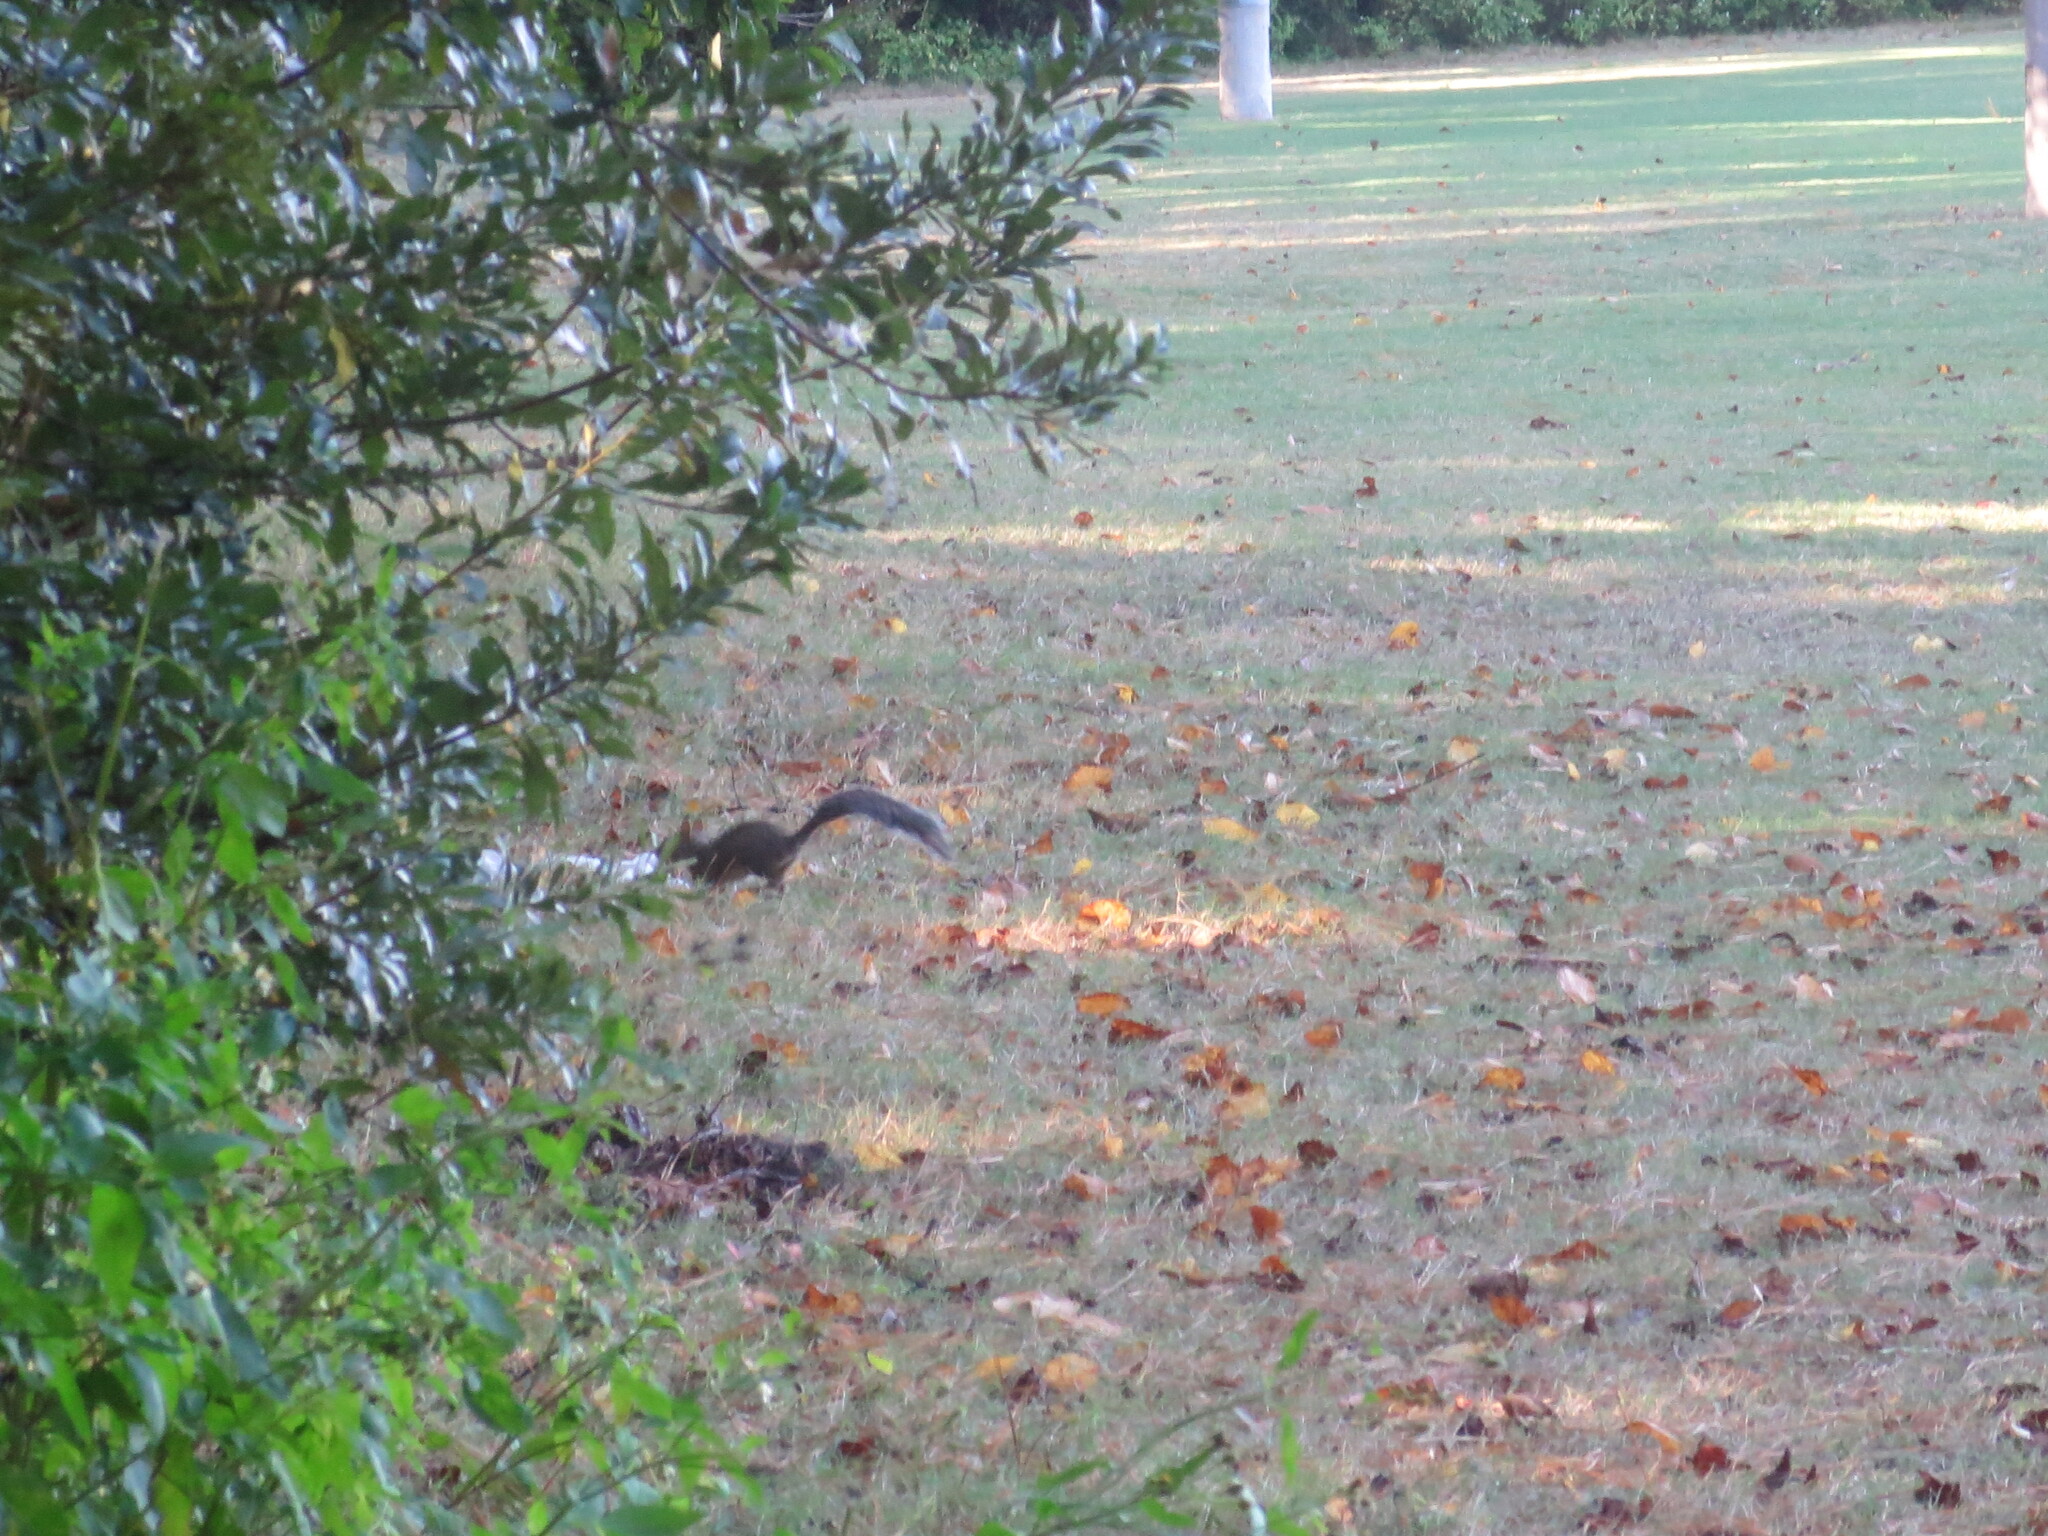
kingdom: Animalia
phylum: Chordata
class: Mammalia
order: Rodentia
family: Sciuridae
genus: Sciurus
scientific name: Sciurus carolinensis
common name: Eastern gray squirrel
